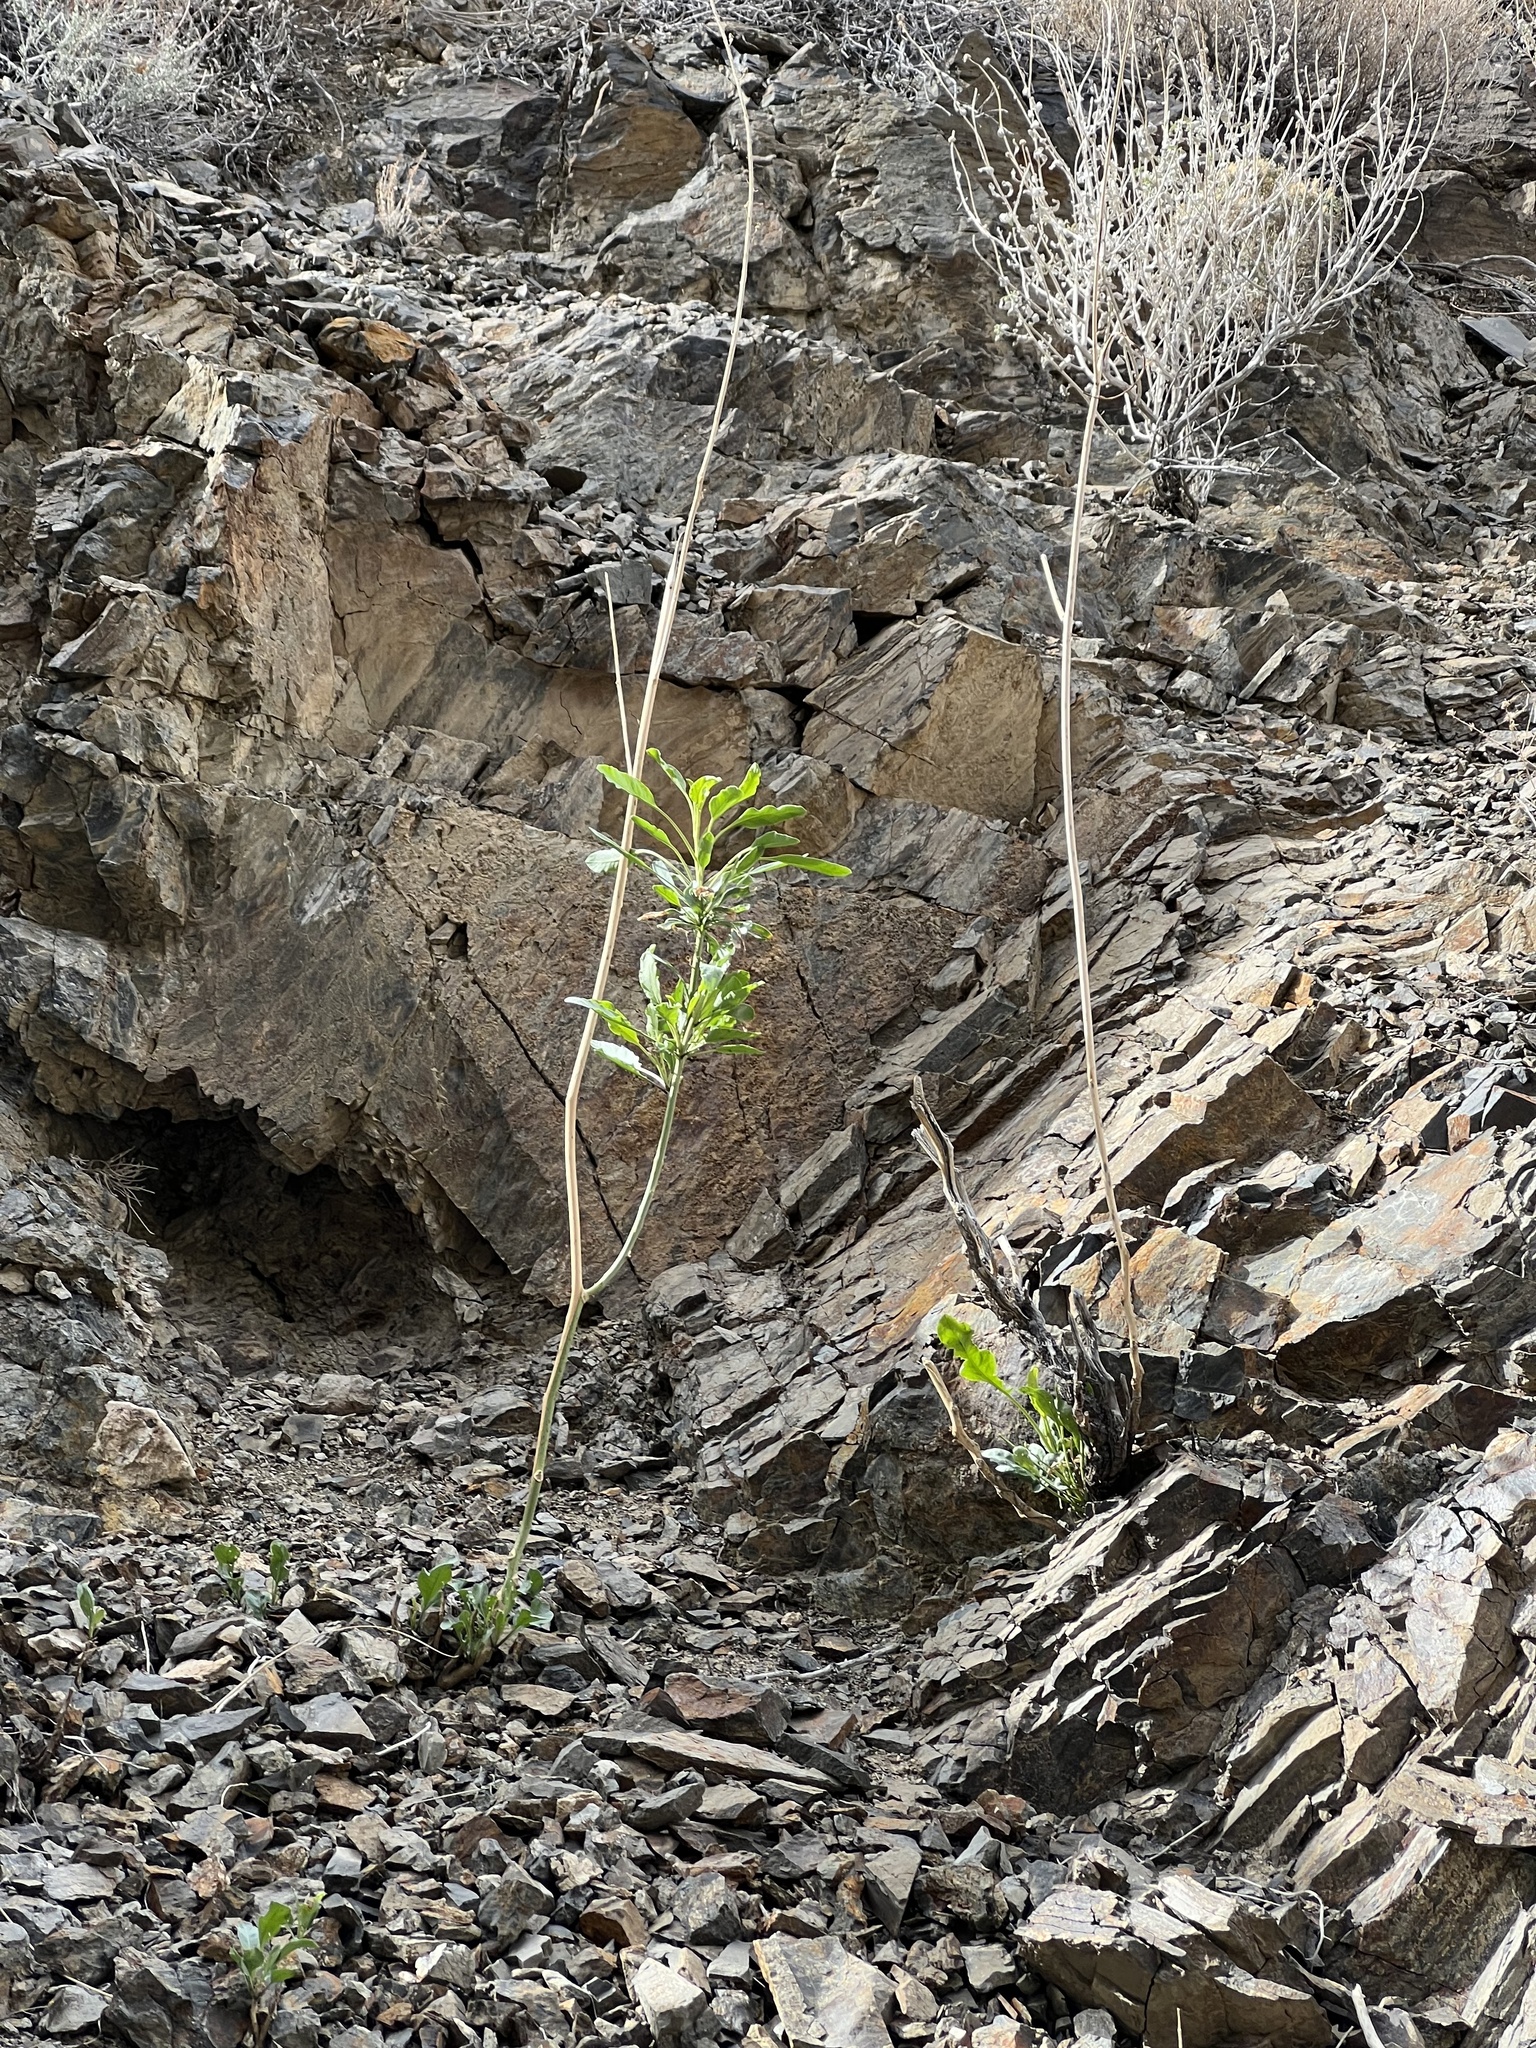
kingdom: Plantae
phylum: Tracheophyta
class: Magnoliopsida
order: Brassicales
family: Brassicaceae
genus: Stanleya
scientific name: Stanleya elata
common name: Panamint prince's plume
